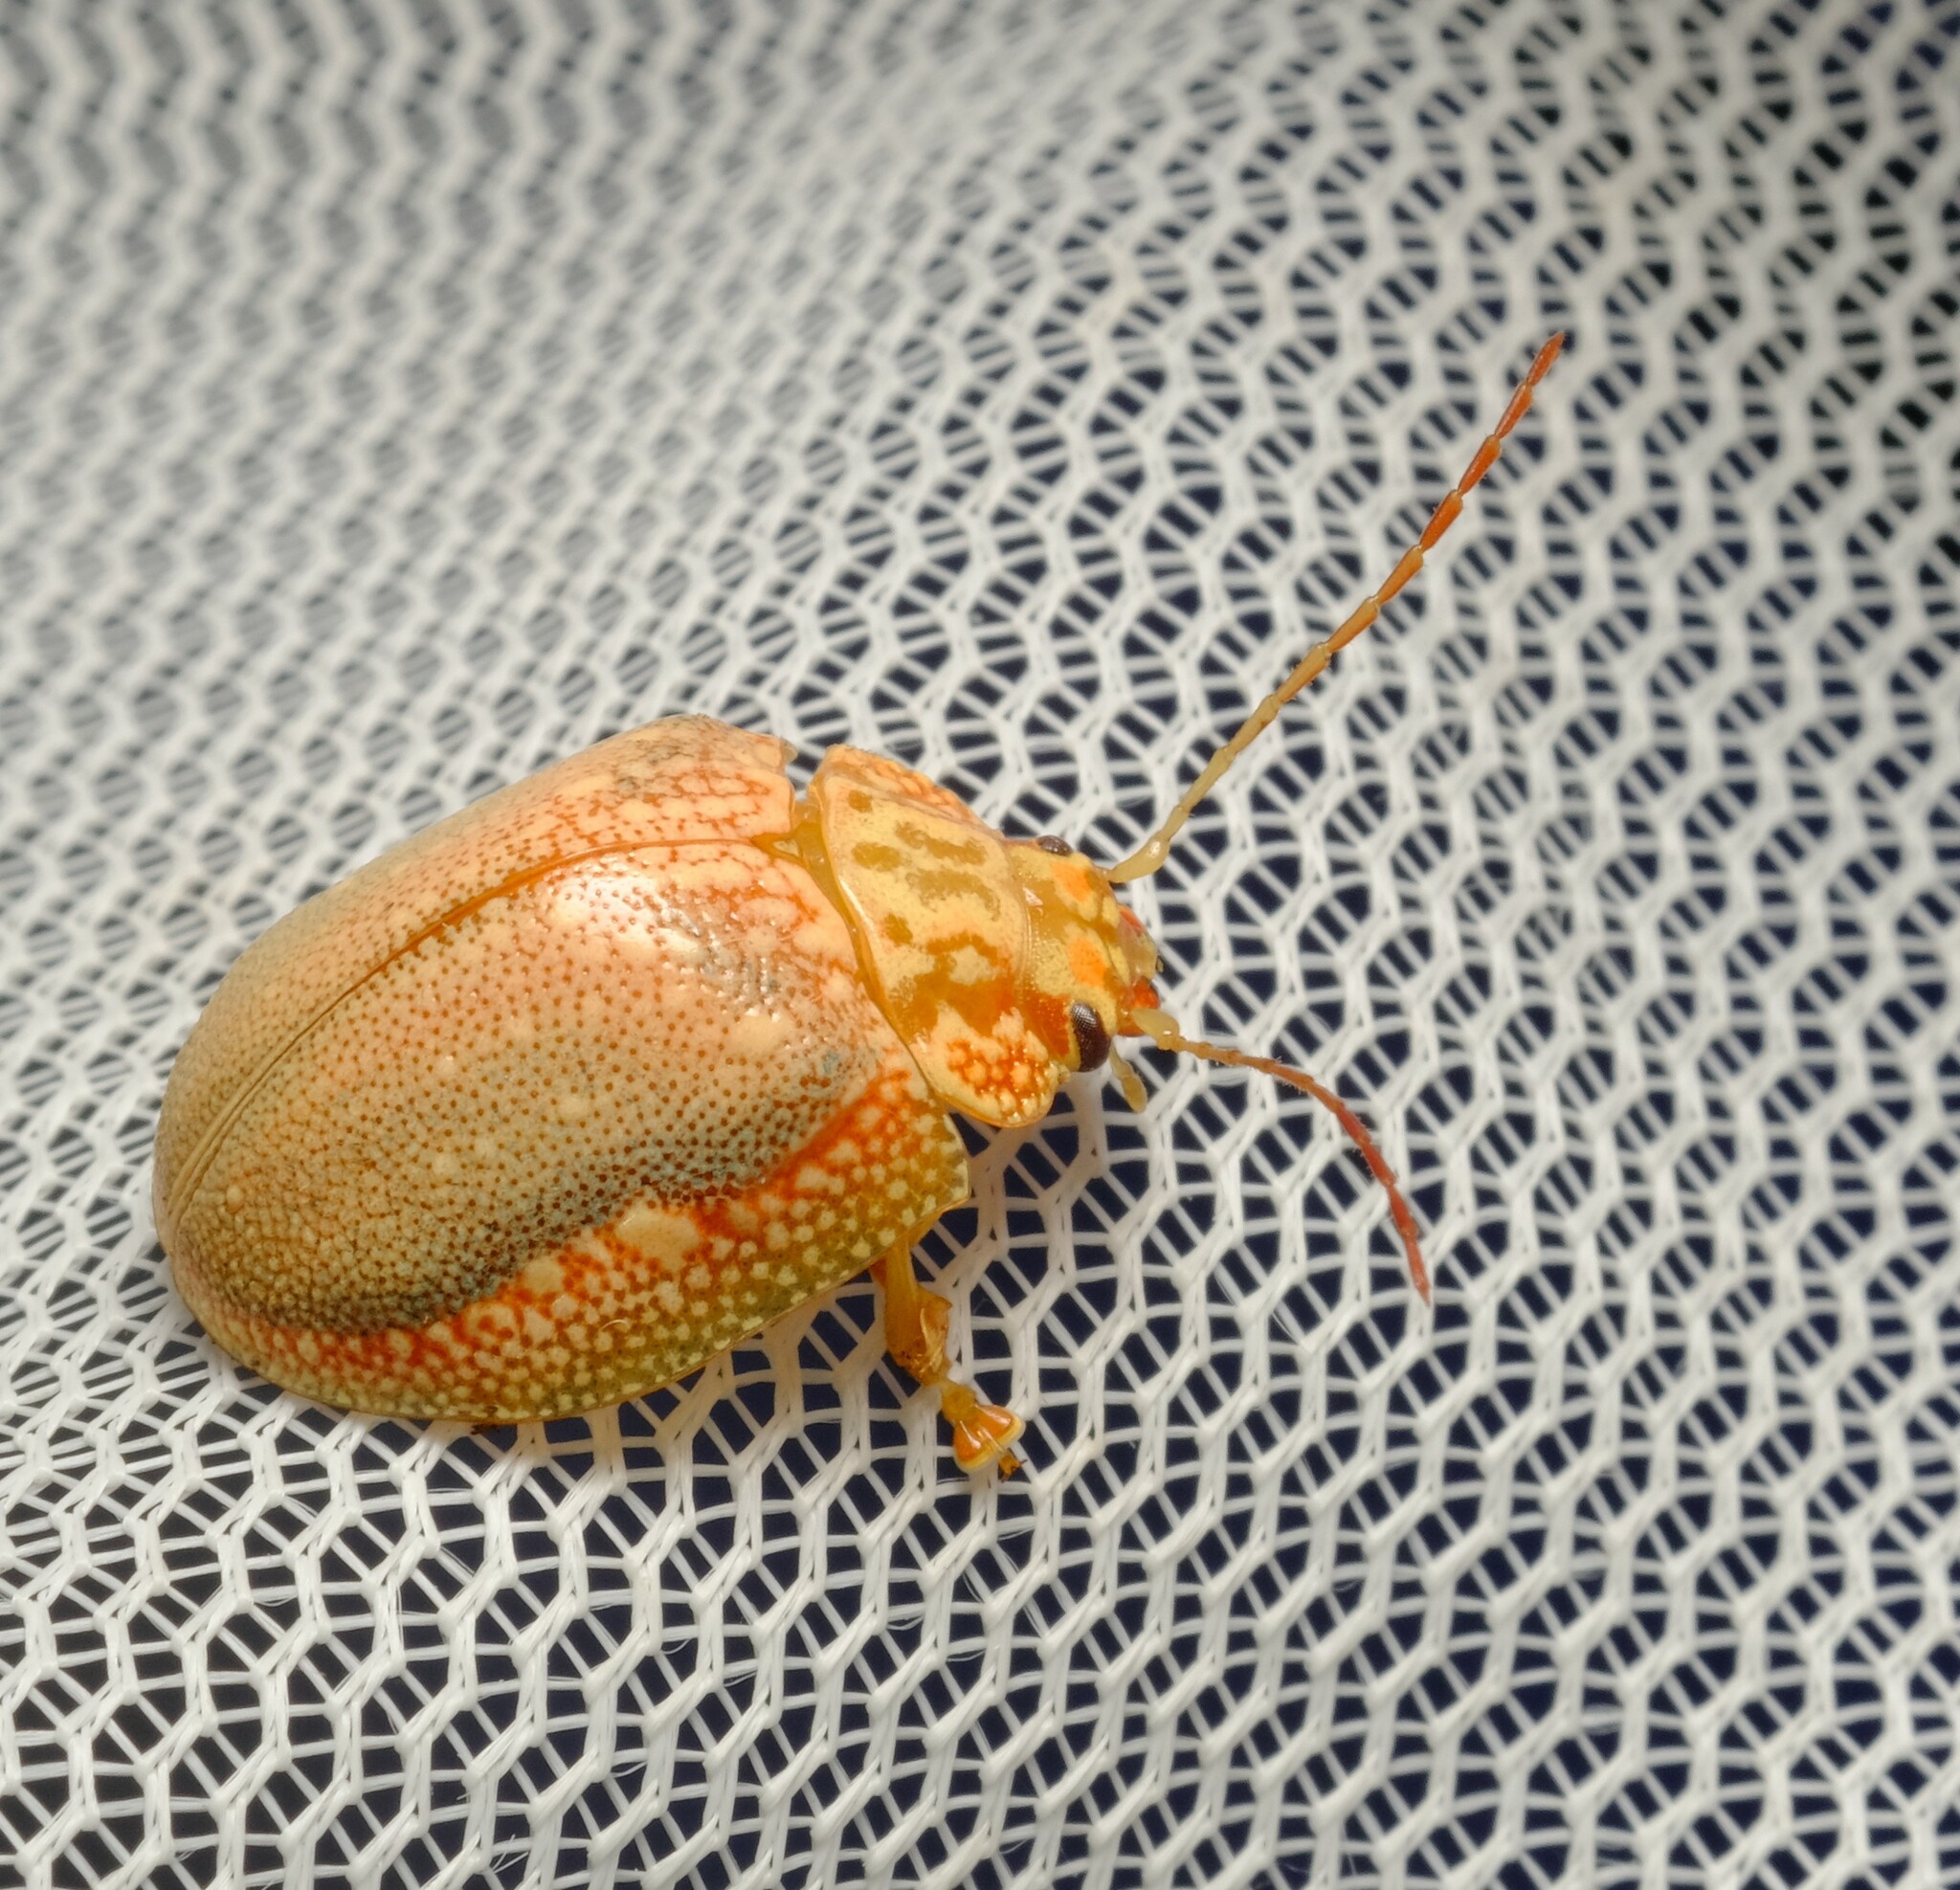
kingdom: Animalia
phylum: Arthropoda
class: Insecta
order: Coleoptera
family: Chrysomelidae
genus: Paropsis
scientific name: Paropsis
